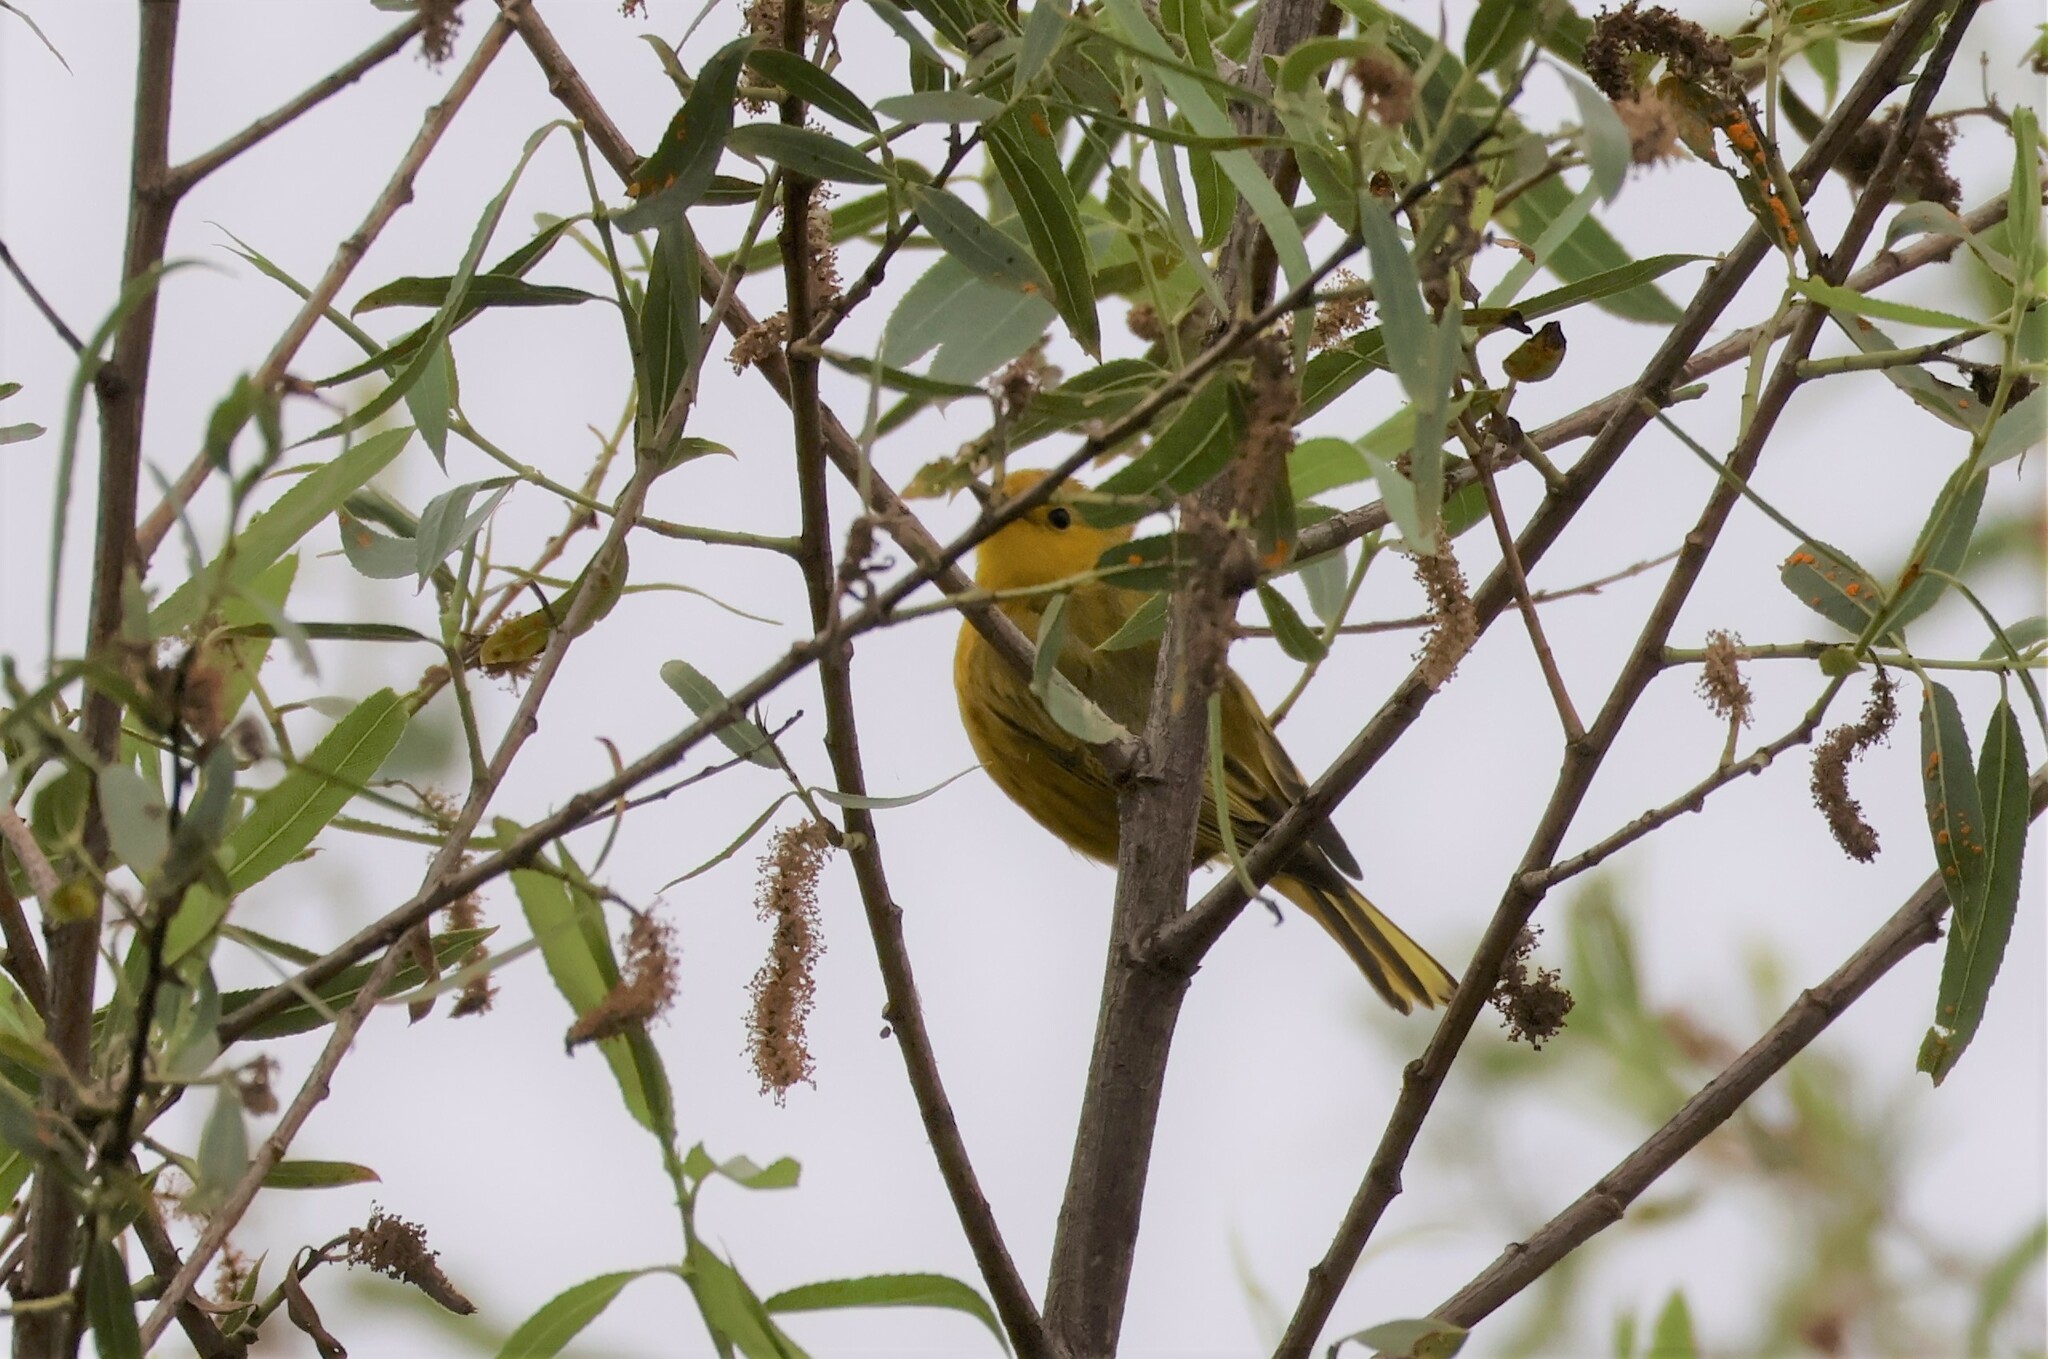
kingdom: Animalia
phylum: Chordata
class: Aves
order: Passeriformes
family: Parulidae
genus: Setophaga
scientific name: Setophaga petechia
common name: Yellow warbler
